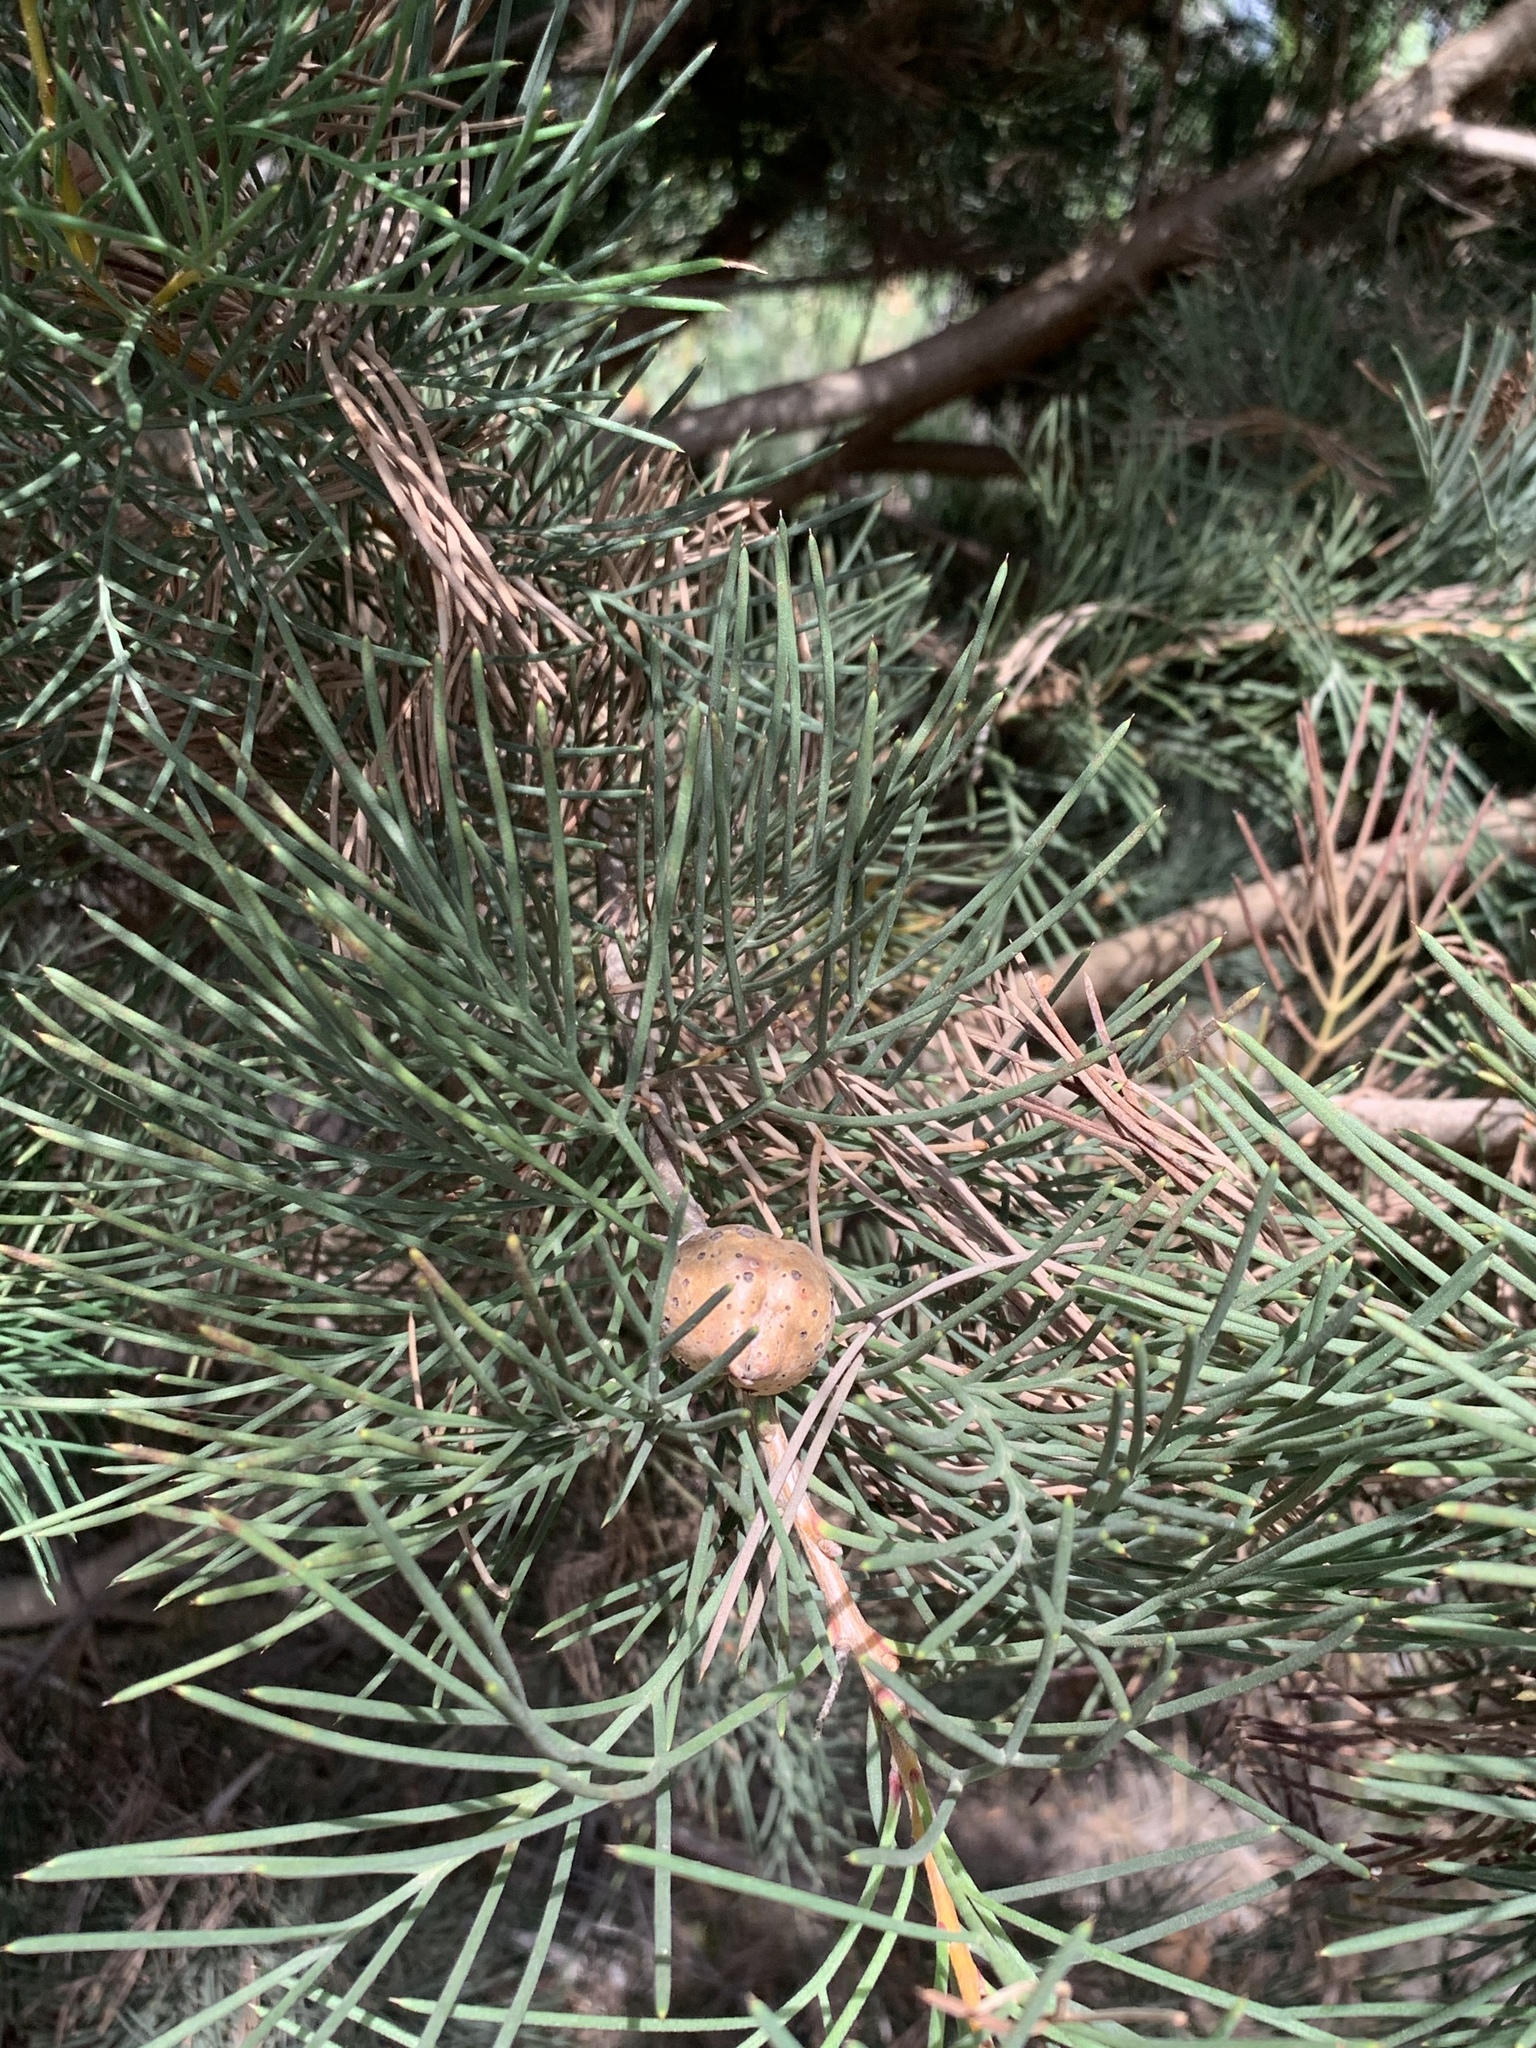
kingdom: Plantae
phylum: Tracheophyta
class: Magnoliopsida
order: Proteales
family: Proteaceae
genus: Hakea
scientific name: Hakea drupacea
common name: Sweet hakea
